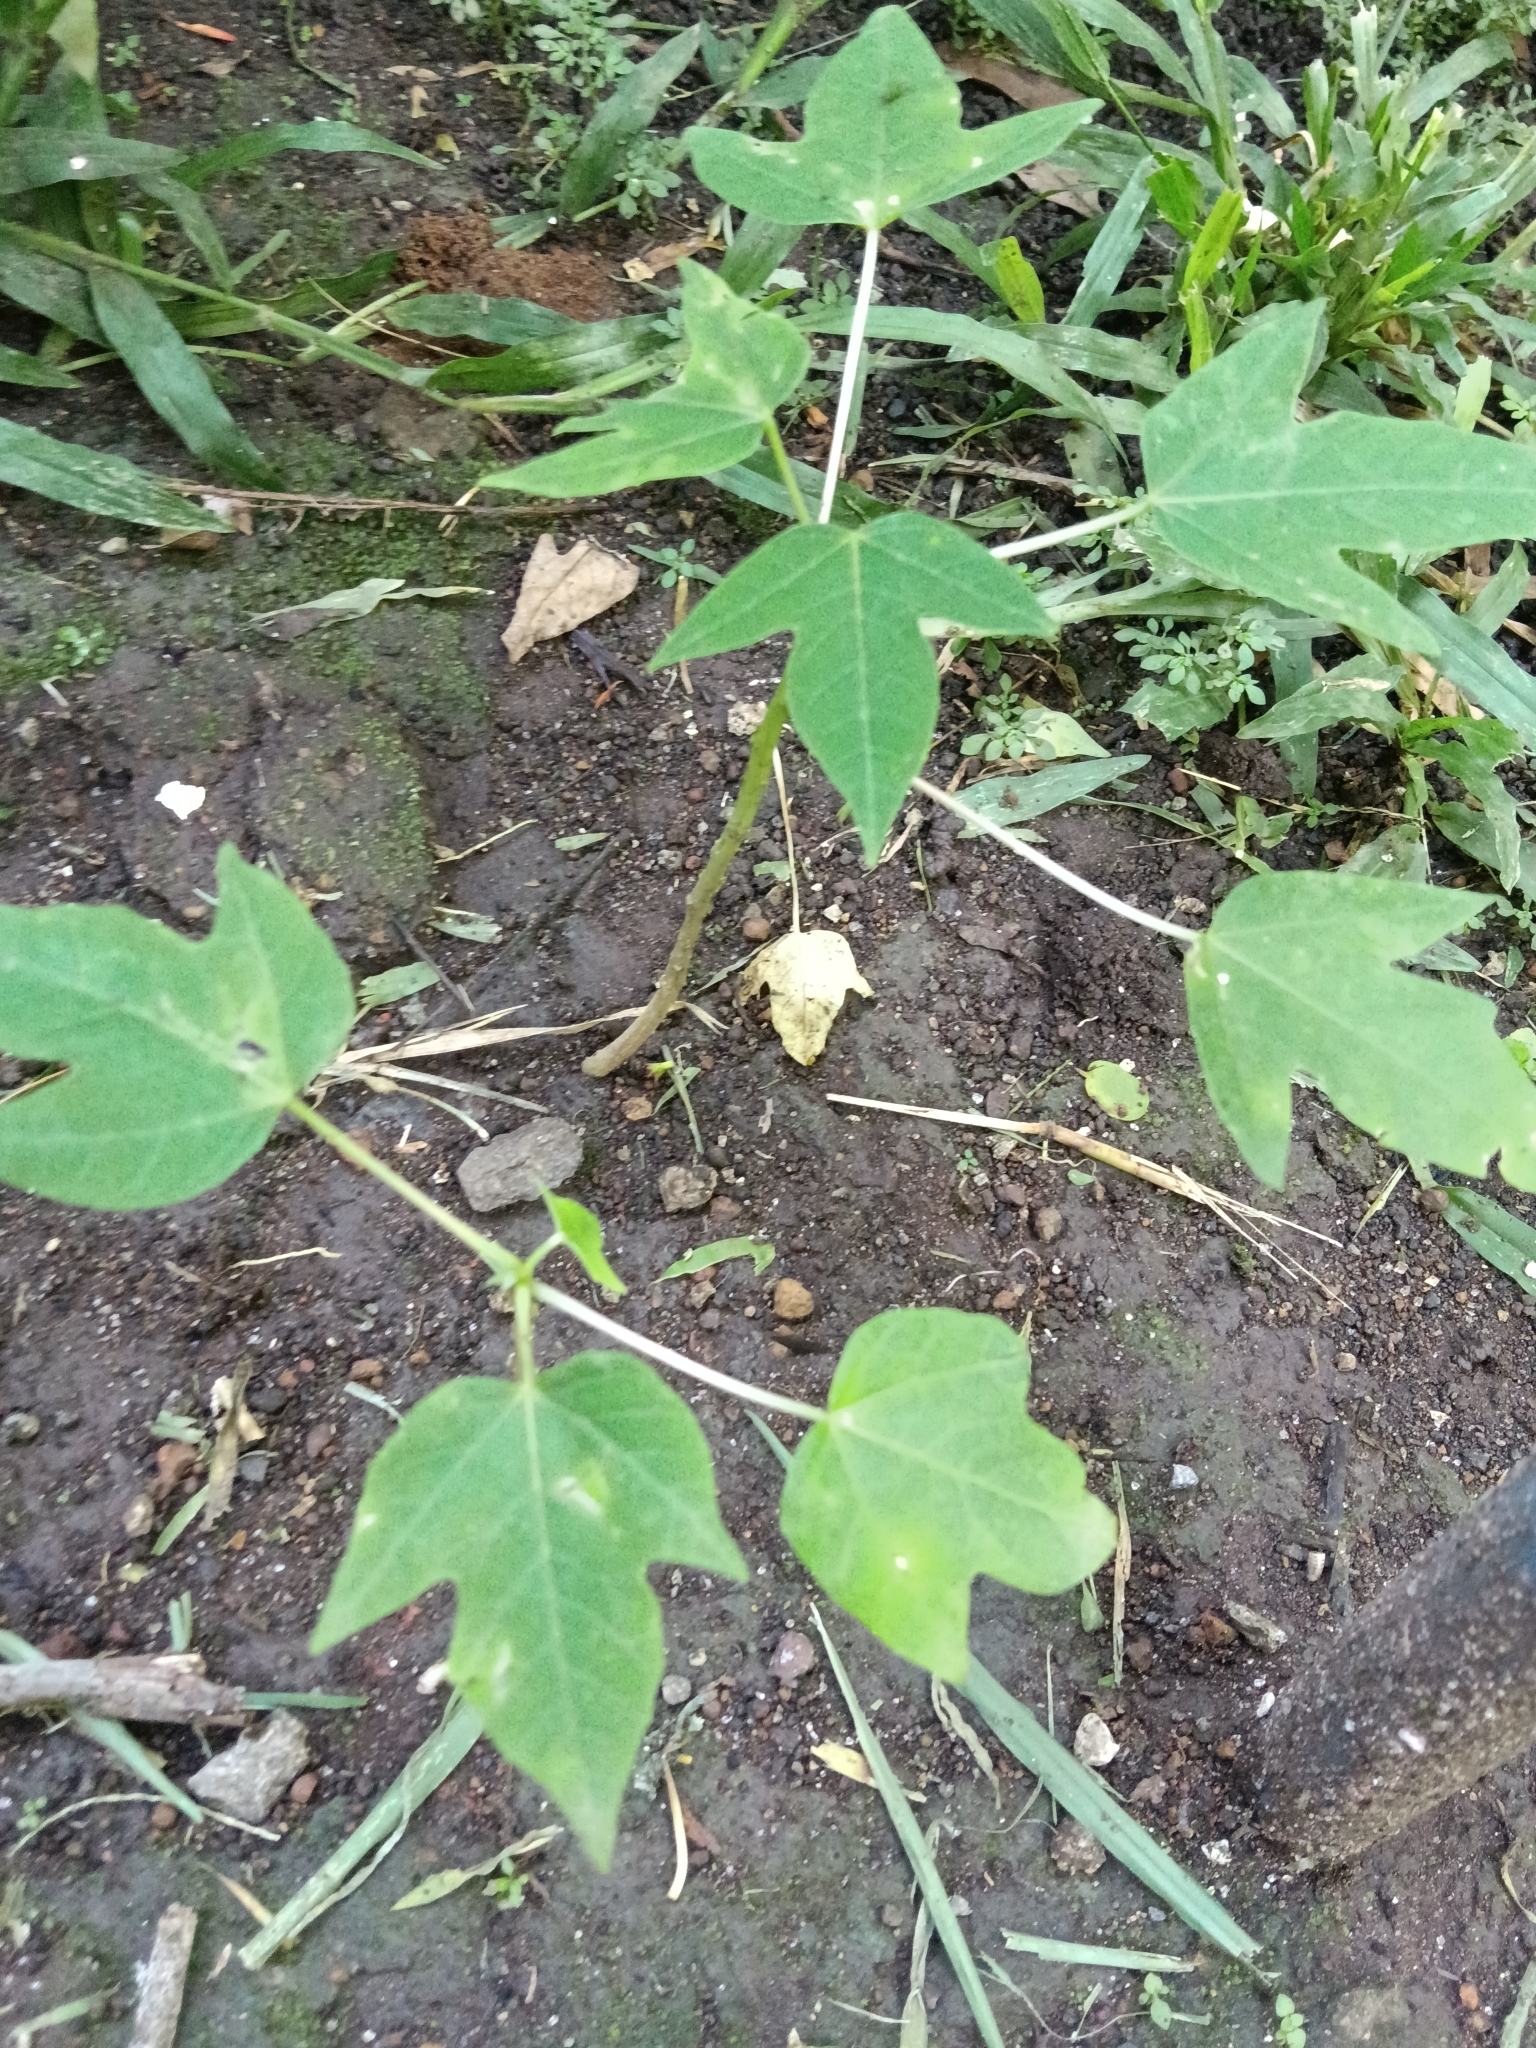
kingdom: Plantae
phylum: Tracheophyta
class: Magnoliopsida
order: Brassicales
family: Caricaceae
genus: Carica
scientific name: Carica papaya
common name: Papaya
